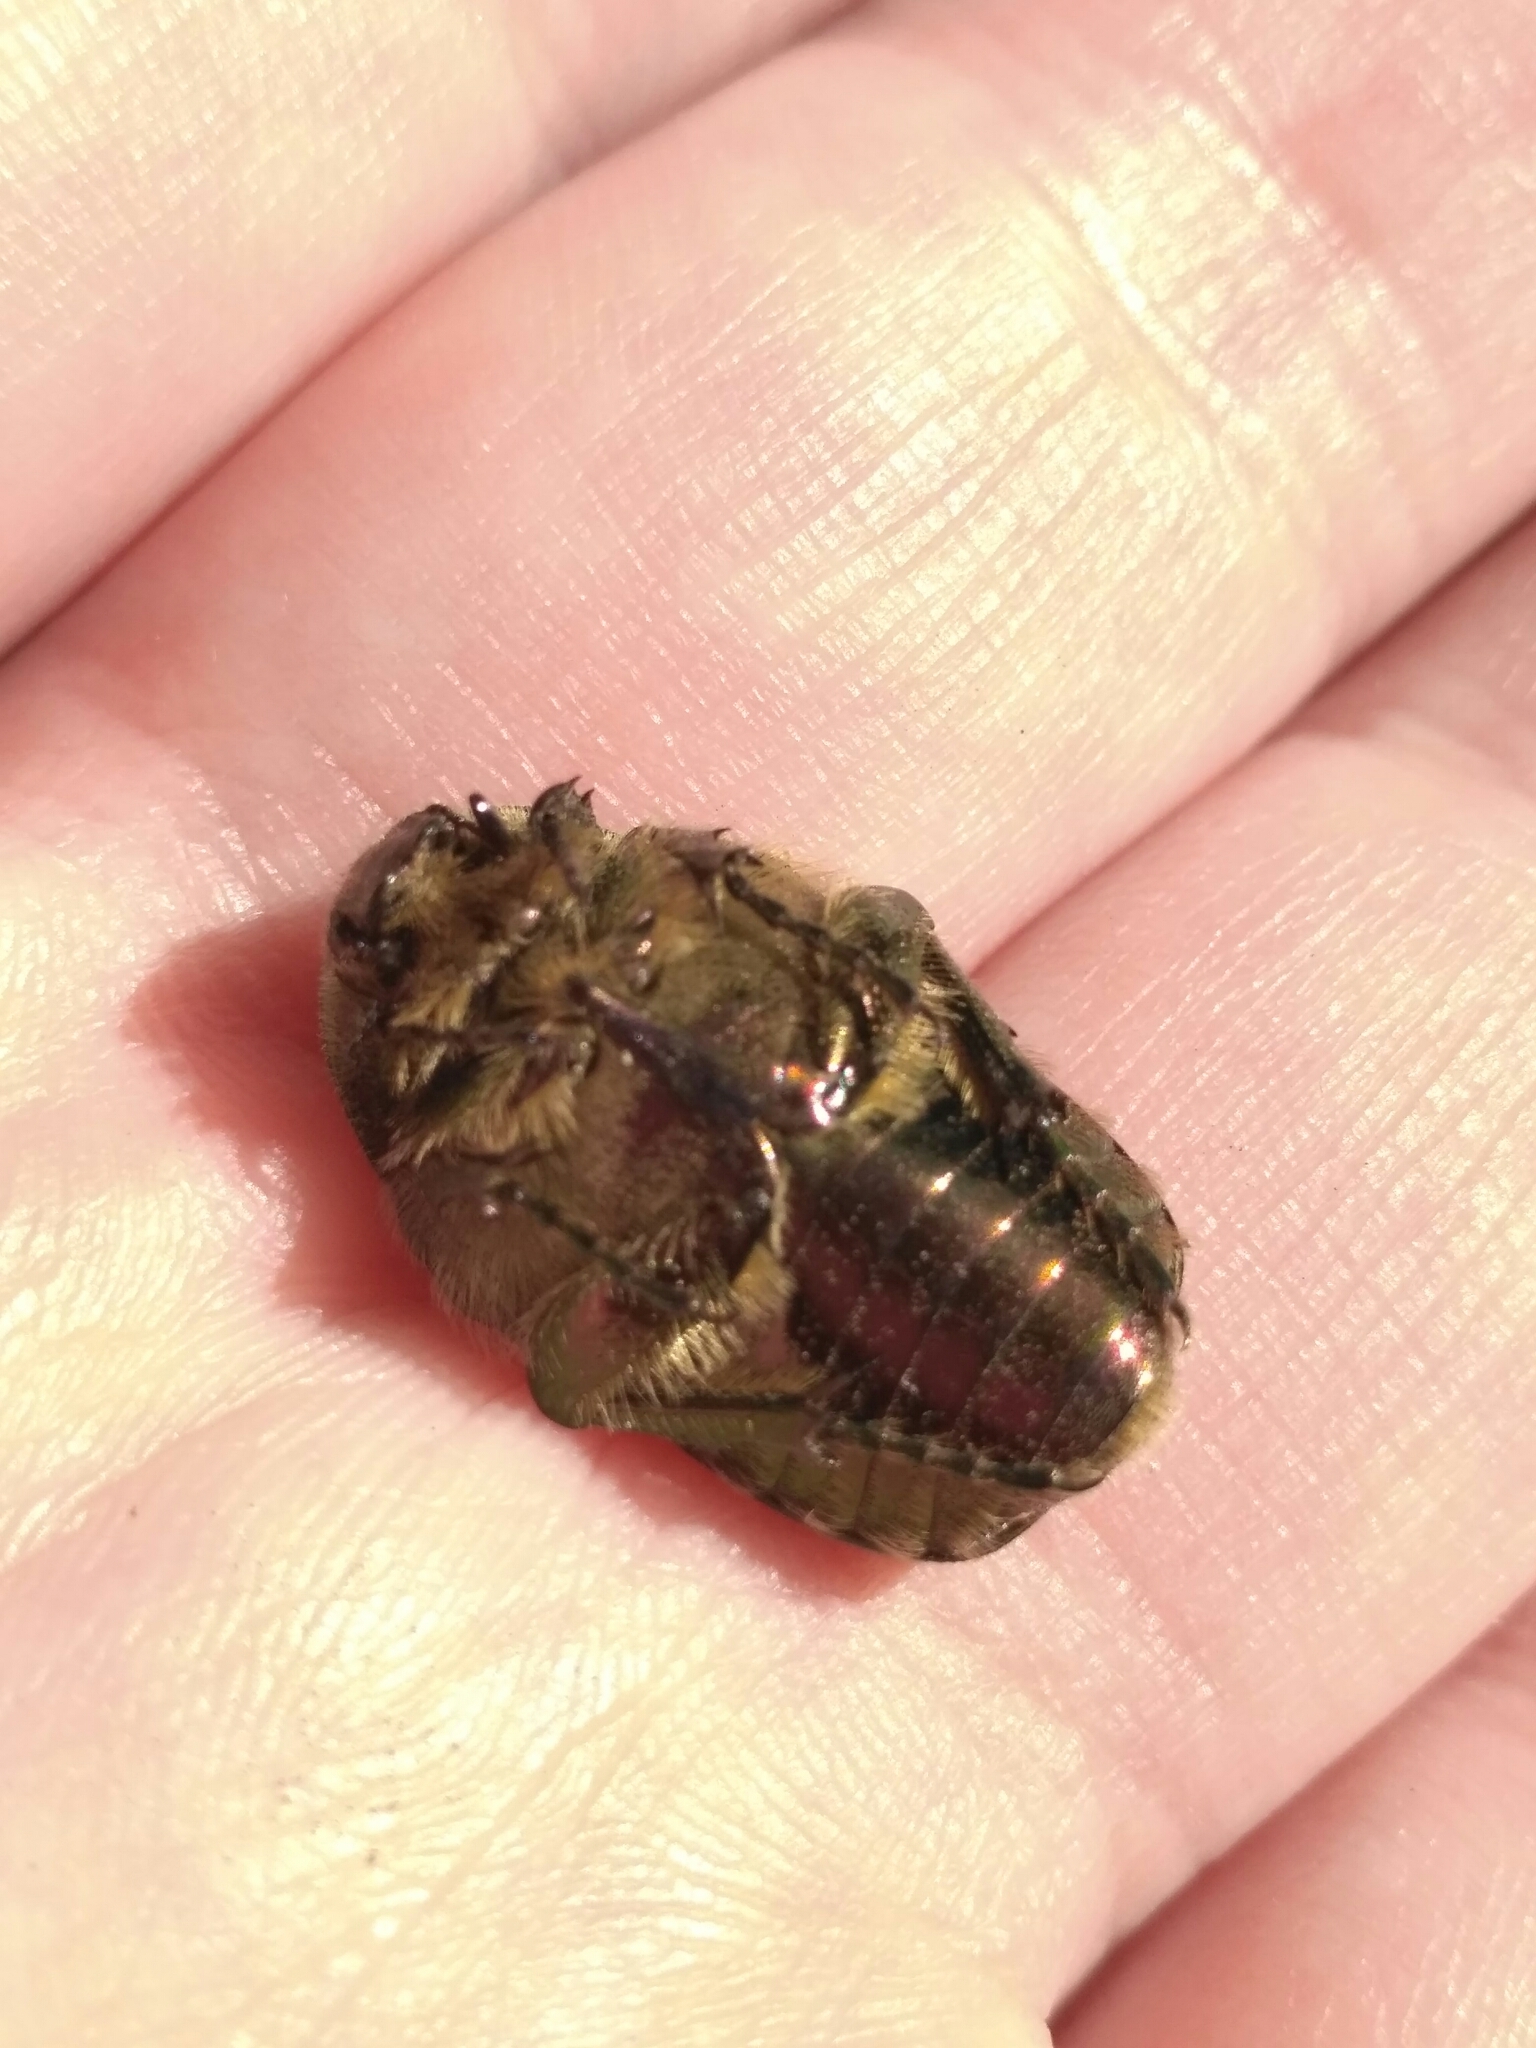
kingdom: Animalia
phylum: Arthropoda
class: Insecta
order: Coleoptera
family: Scarabaeidae
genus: Cetonia
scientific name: Cetonia aurata
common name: Rose chafer
